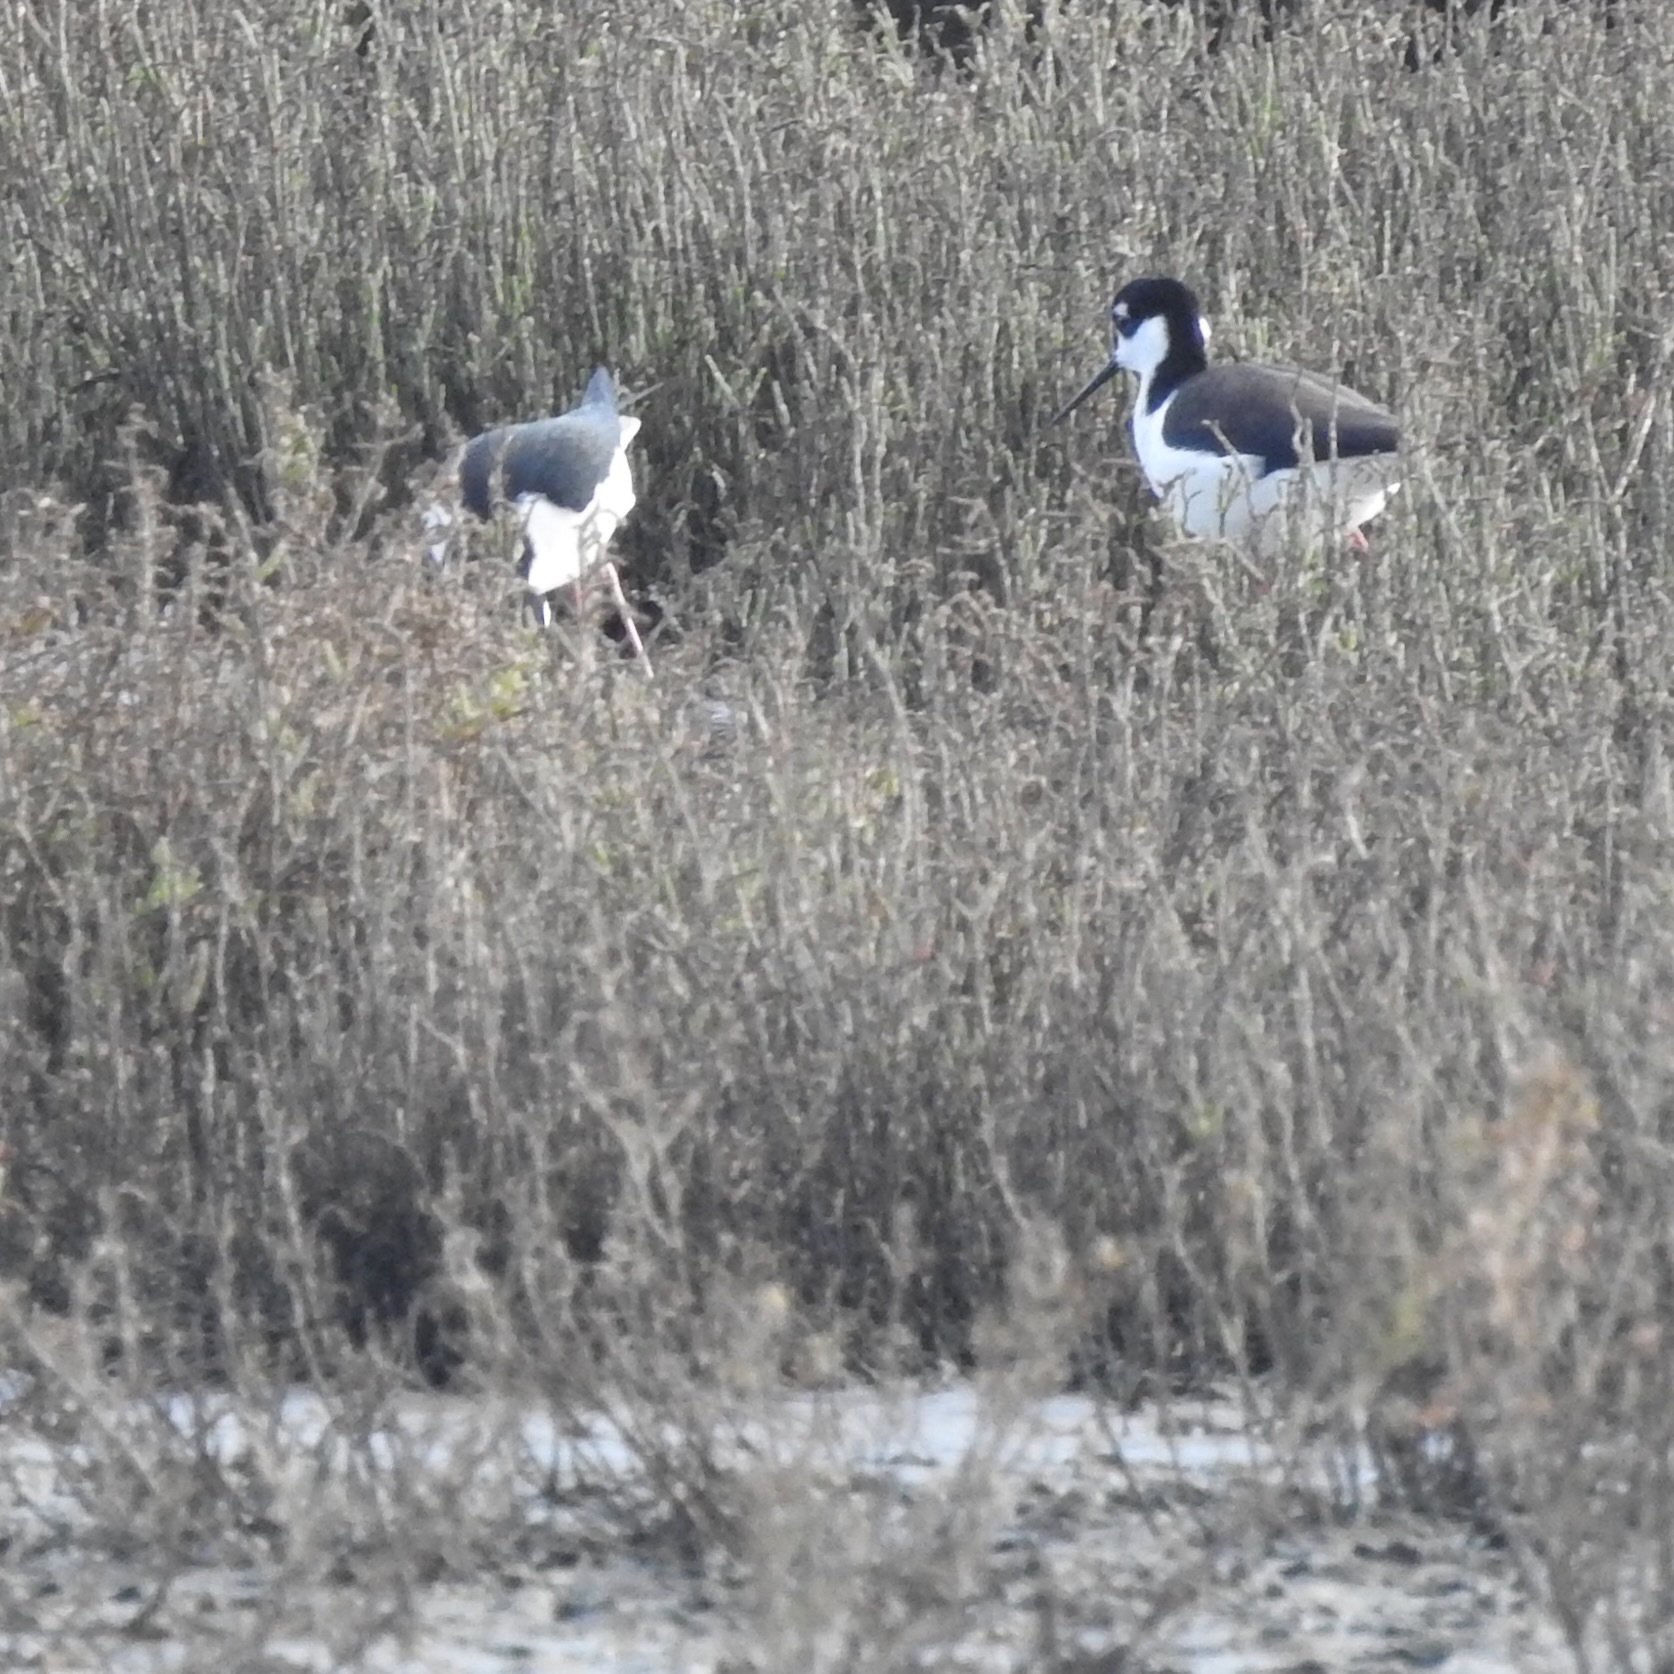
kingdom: Animalia
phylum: Chordata
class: Aves
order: Charadriiformes
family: Recurvirostridae
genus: Himantopus
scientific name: Himantopus mexicanus
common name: Black-necked stilt
